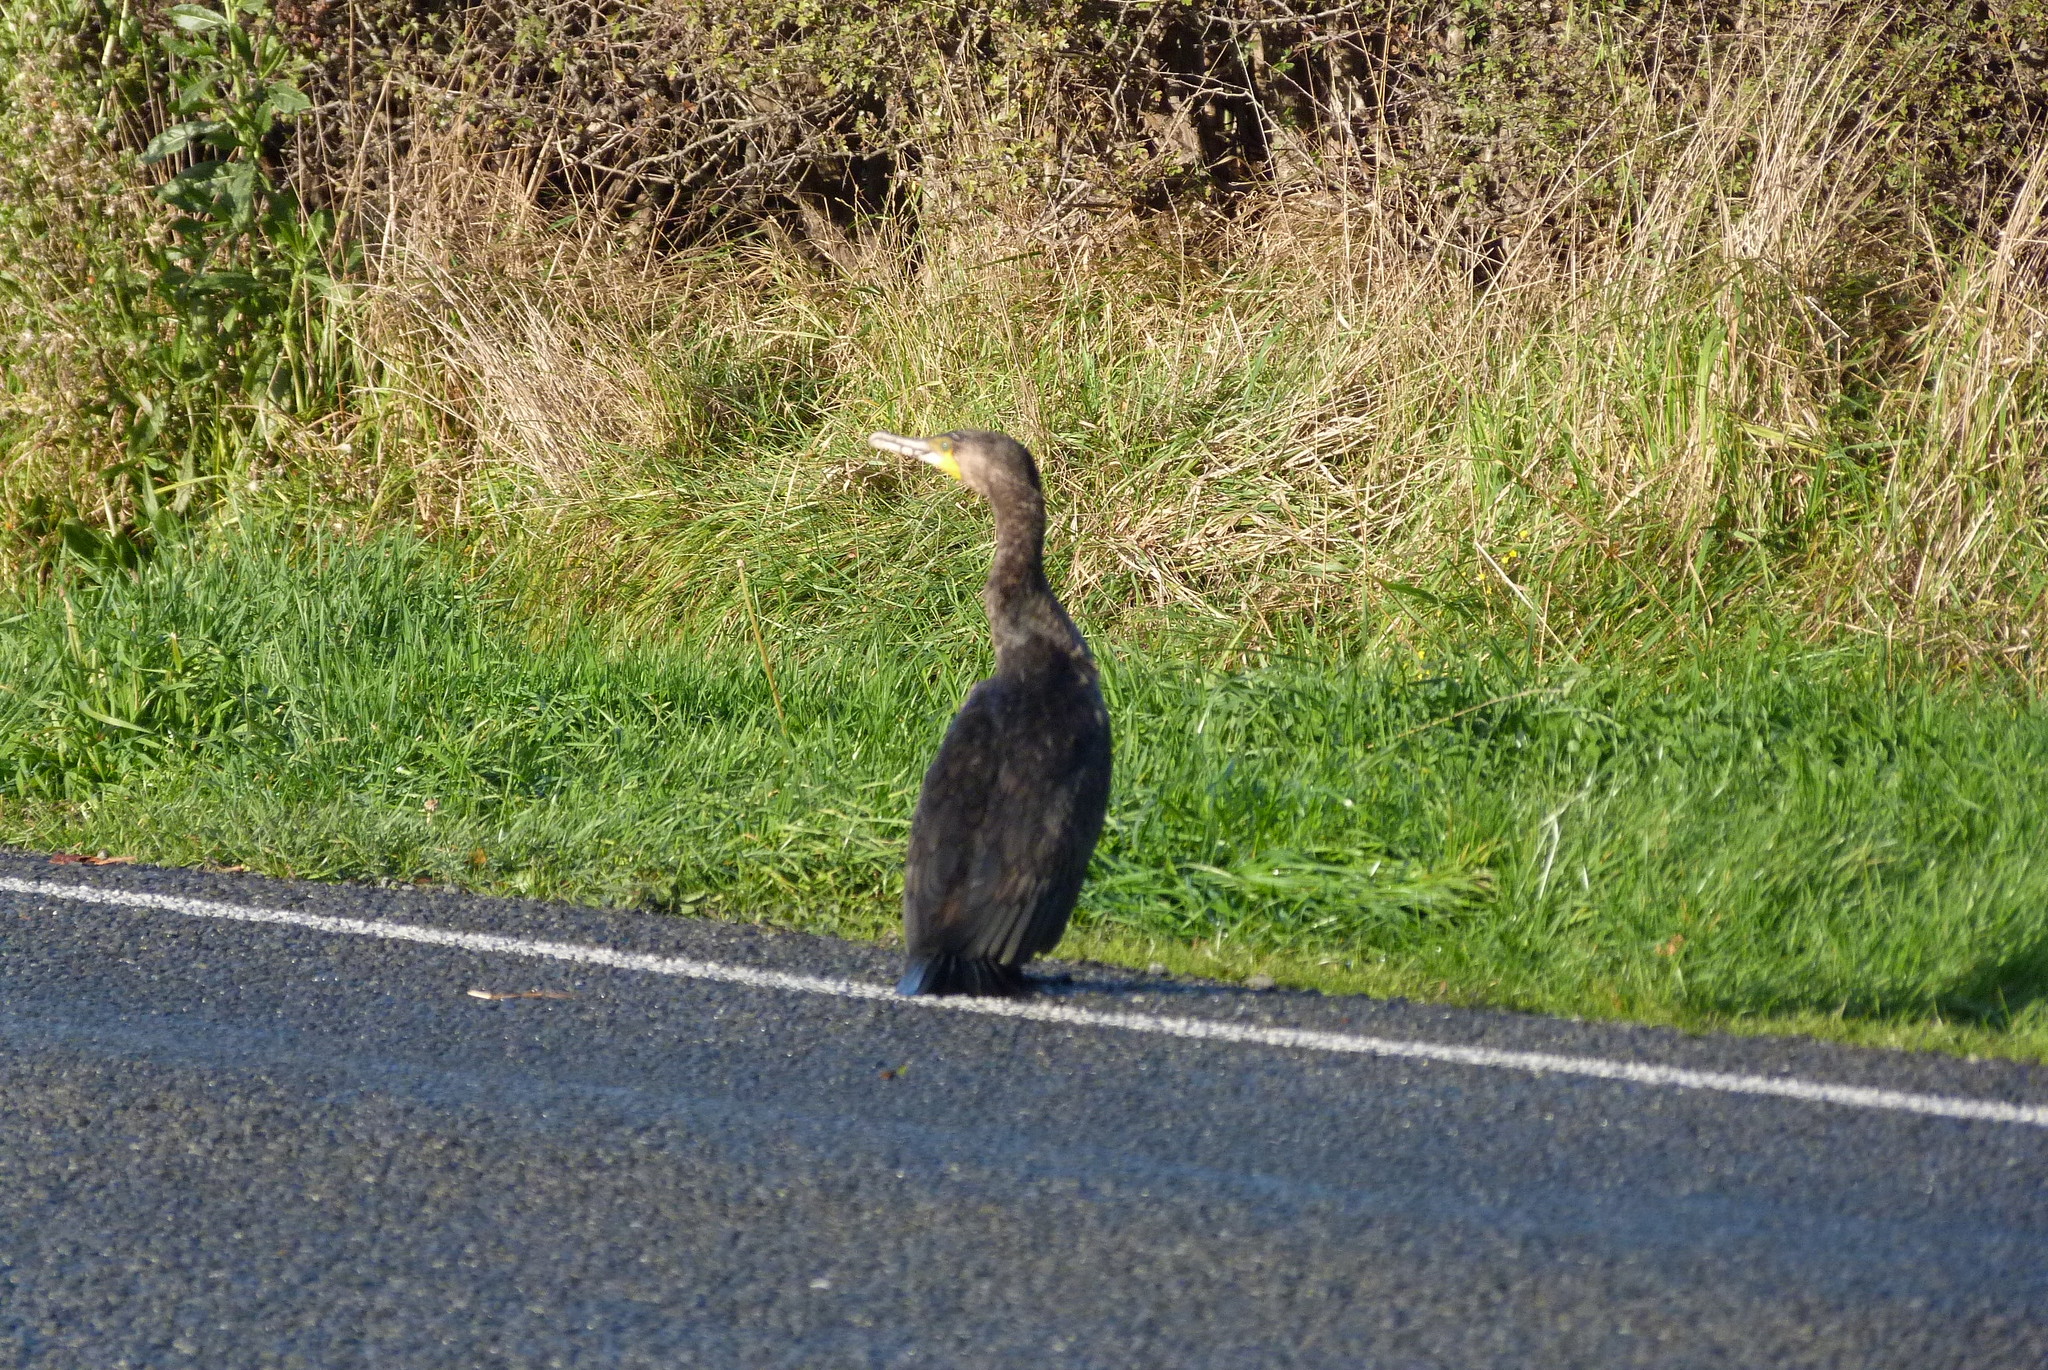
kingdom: Animalia
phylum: Chordata
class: Aves
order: Suliformes
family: Phalacrocoracidae
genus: Phalacrocorax
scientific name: Phalacrocorax carbo
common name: Great cormorant
